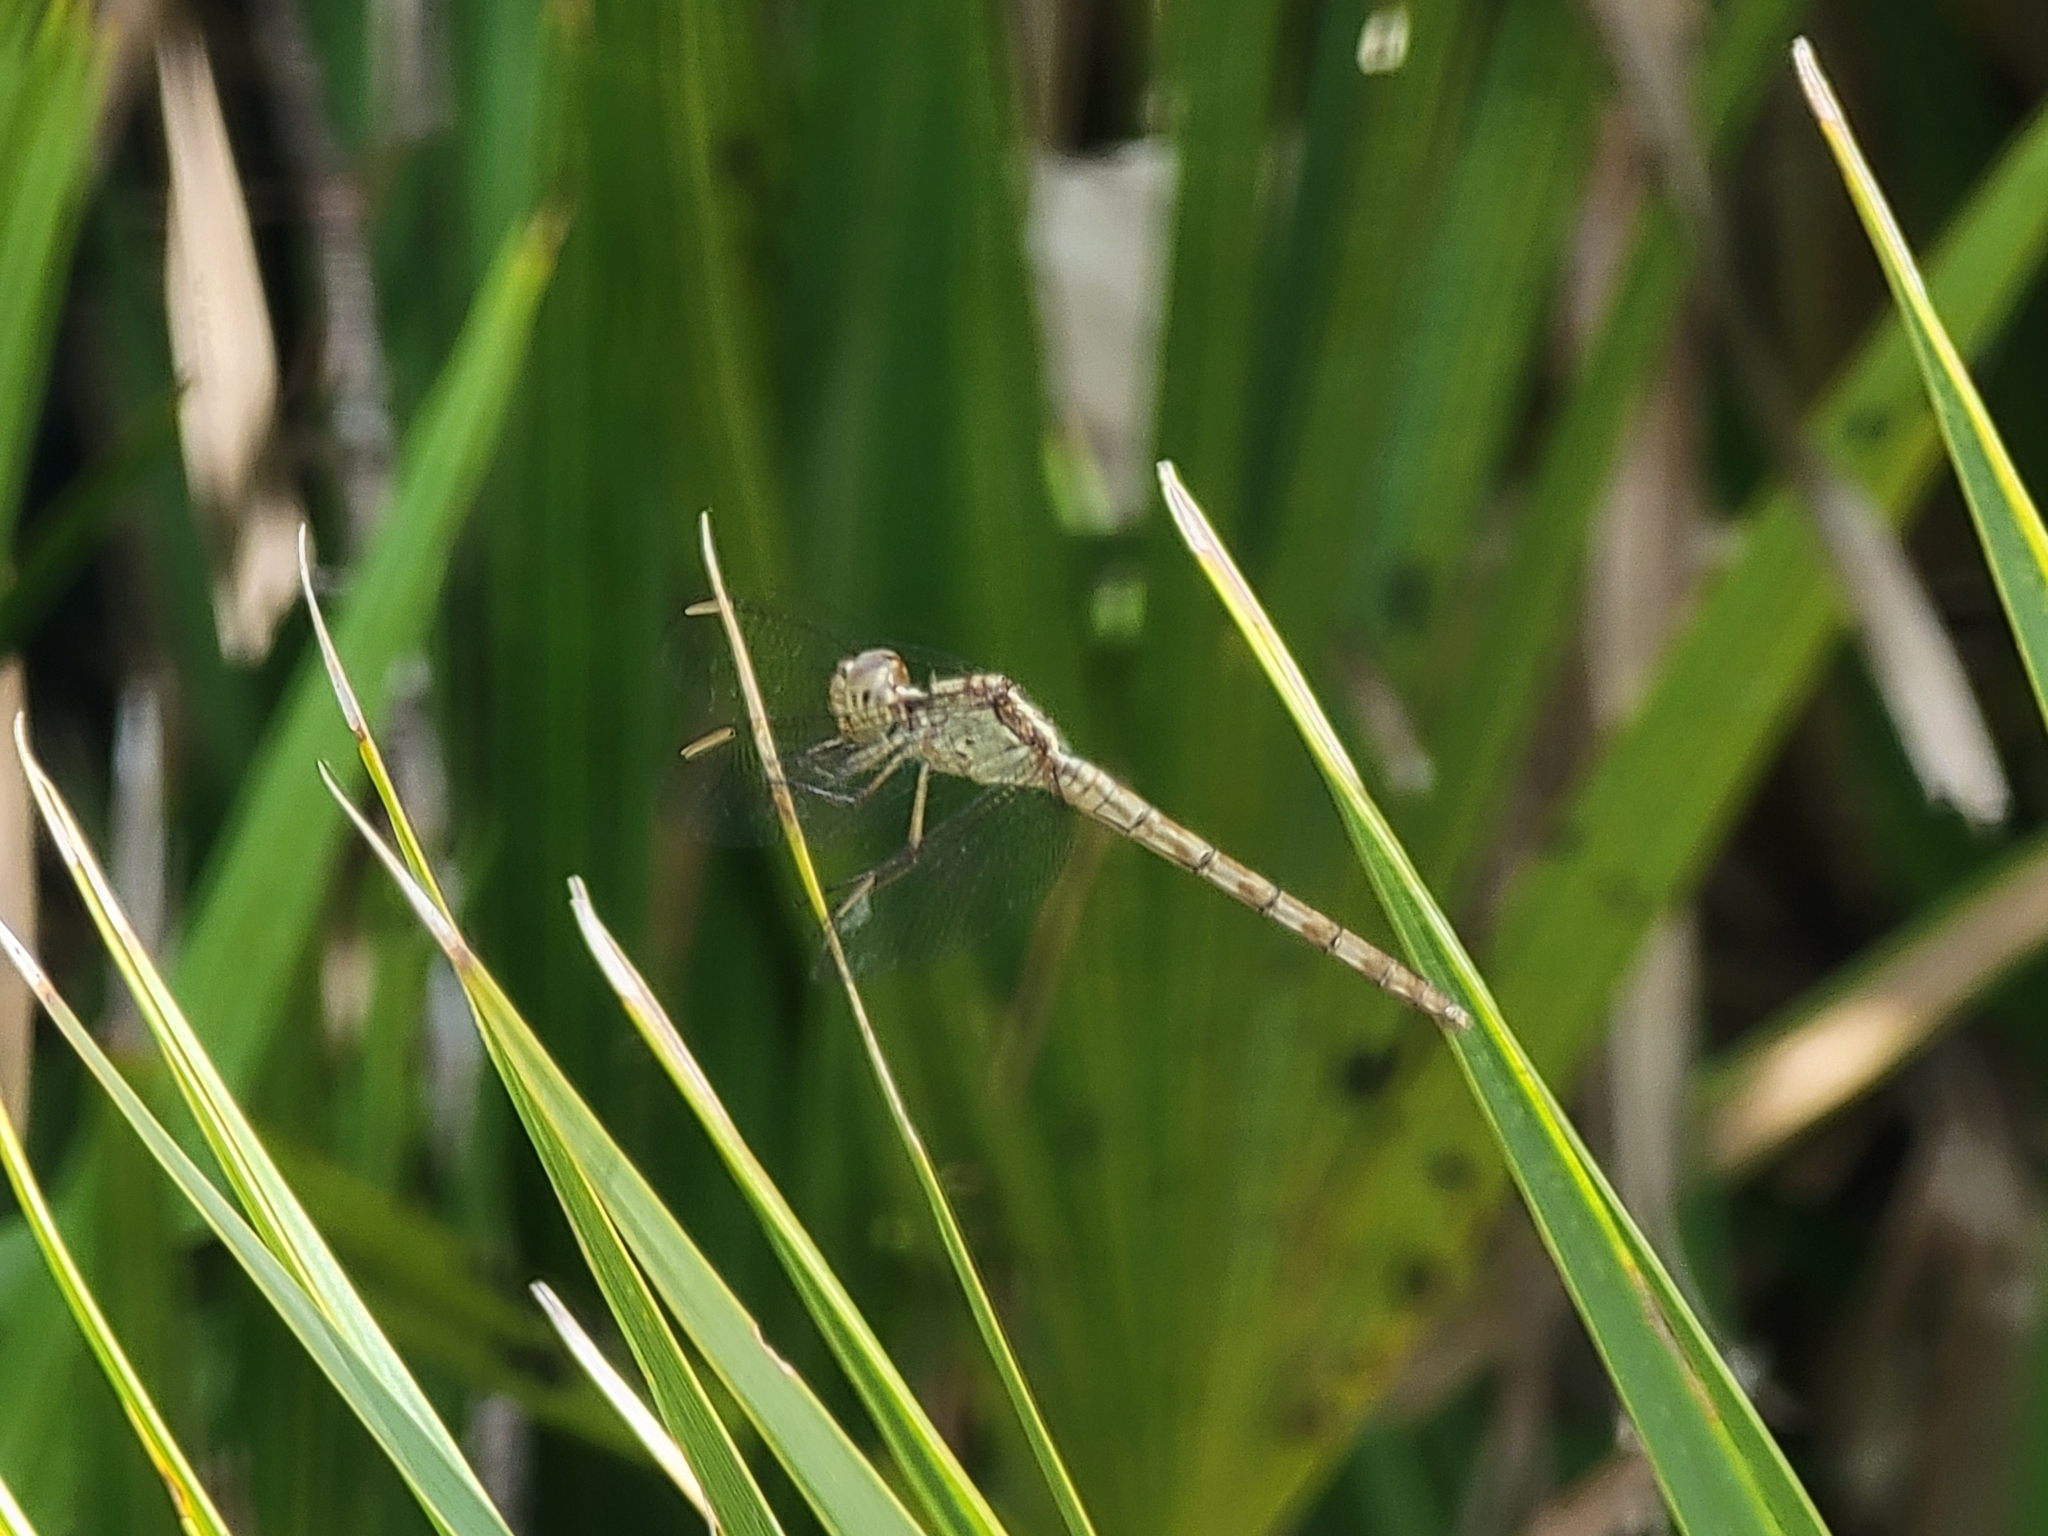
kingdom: Animalia
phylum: Arthropoda
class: Insecta
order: Odonata
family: Libellulidae
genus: Erythrodiplax
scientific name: Erythrodiplax umbrata
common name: Band-winged dragonlet
